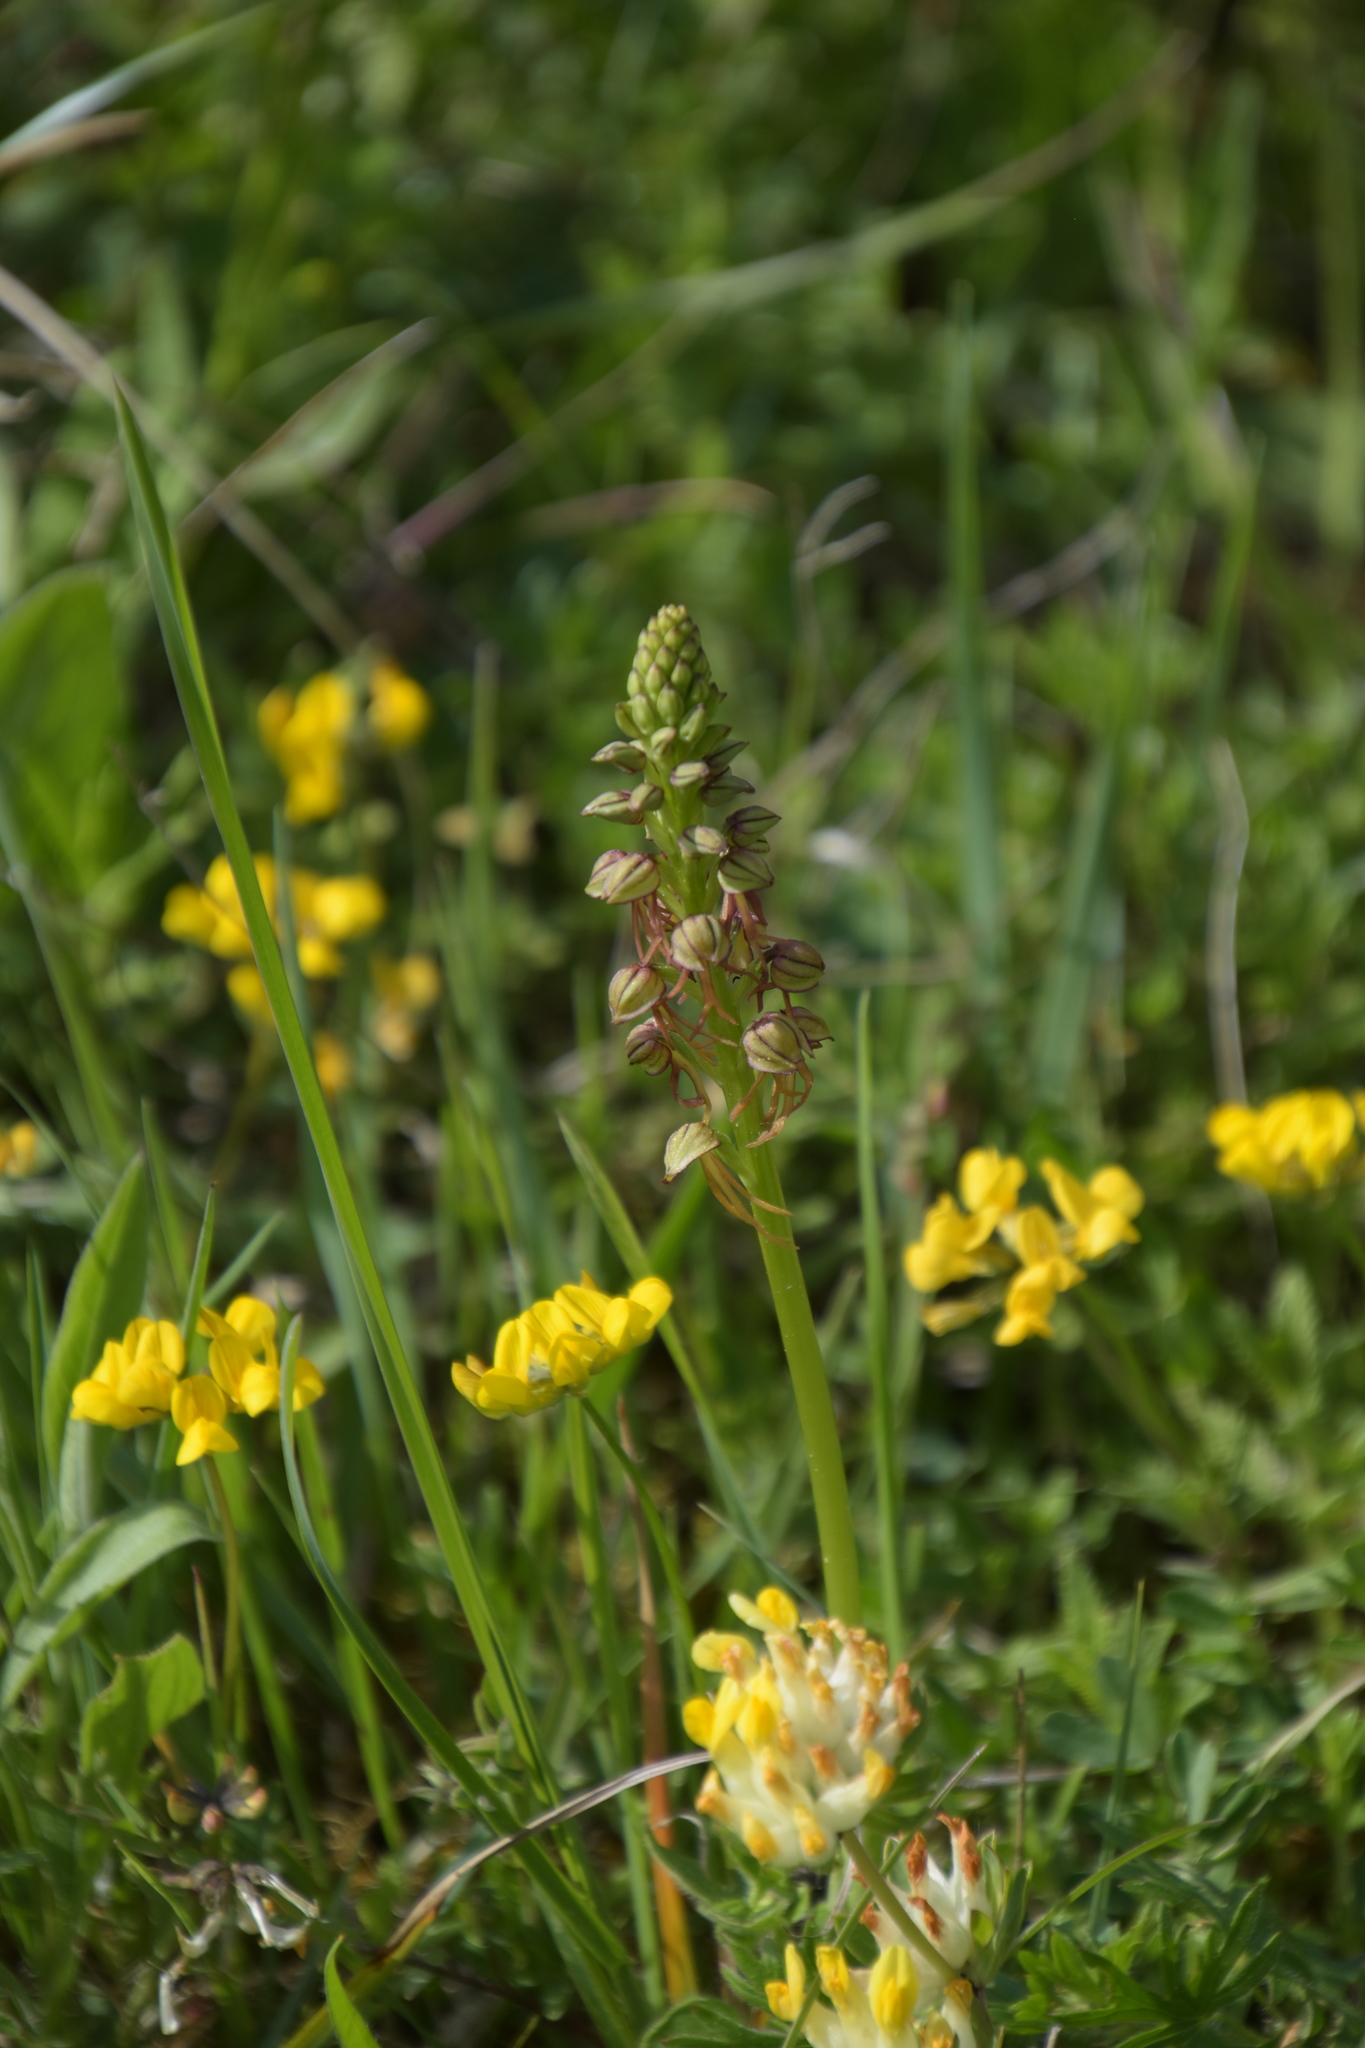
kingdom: Plantae
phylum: Tracheophyta
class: Liliopsida
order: Asparagales
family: Orchidaceae
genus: Orchis
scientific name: Orchis anthropophora
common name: Man orchid
